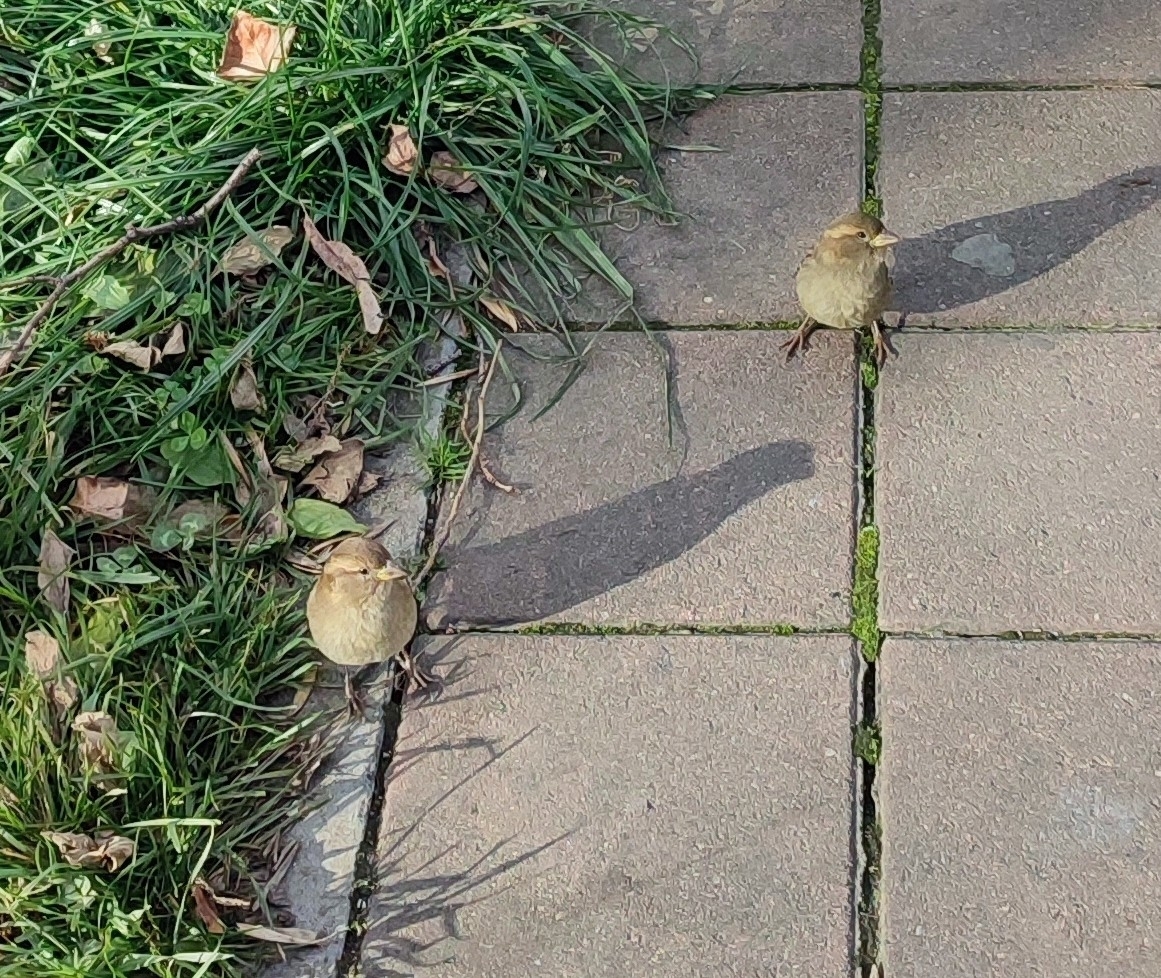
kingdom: Animalia
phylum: Chordata
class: Aves
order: Passeriformes
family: Passeridae
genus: Passer
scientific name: Passer domesticus
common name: House sparrow
